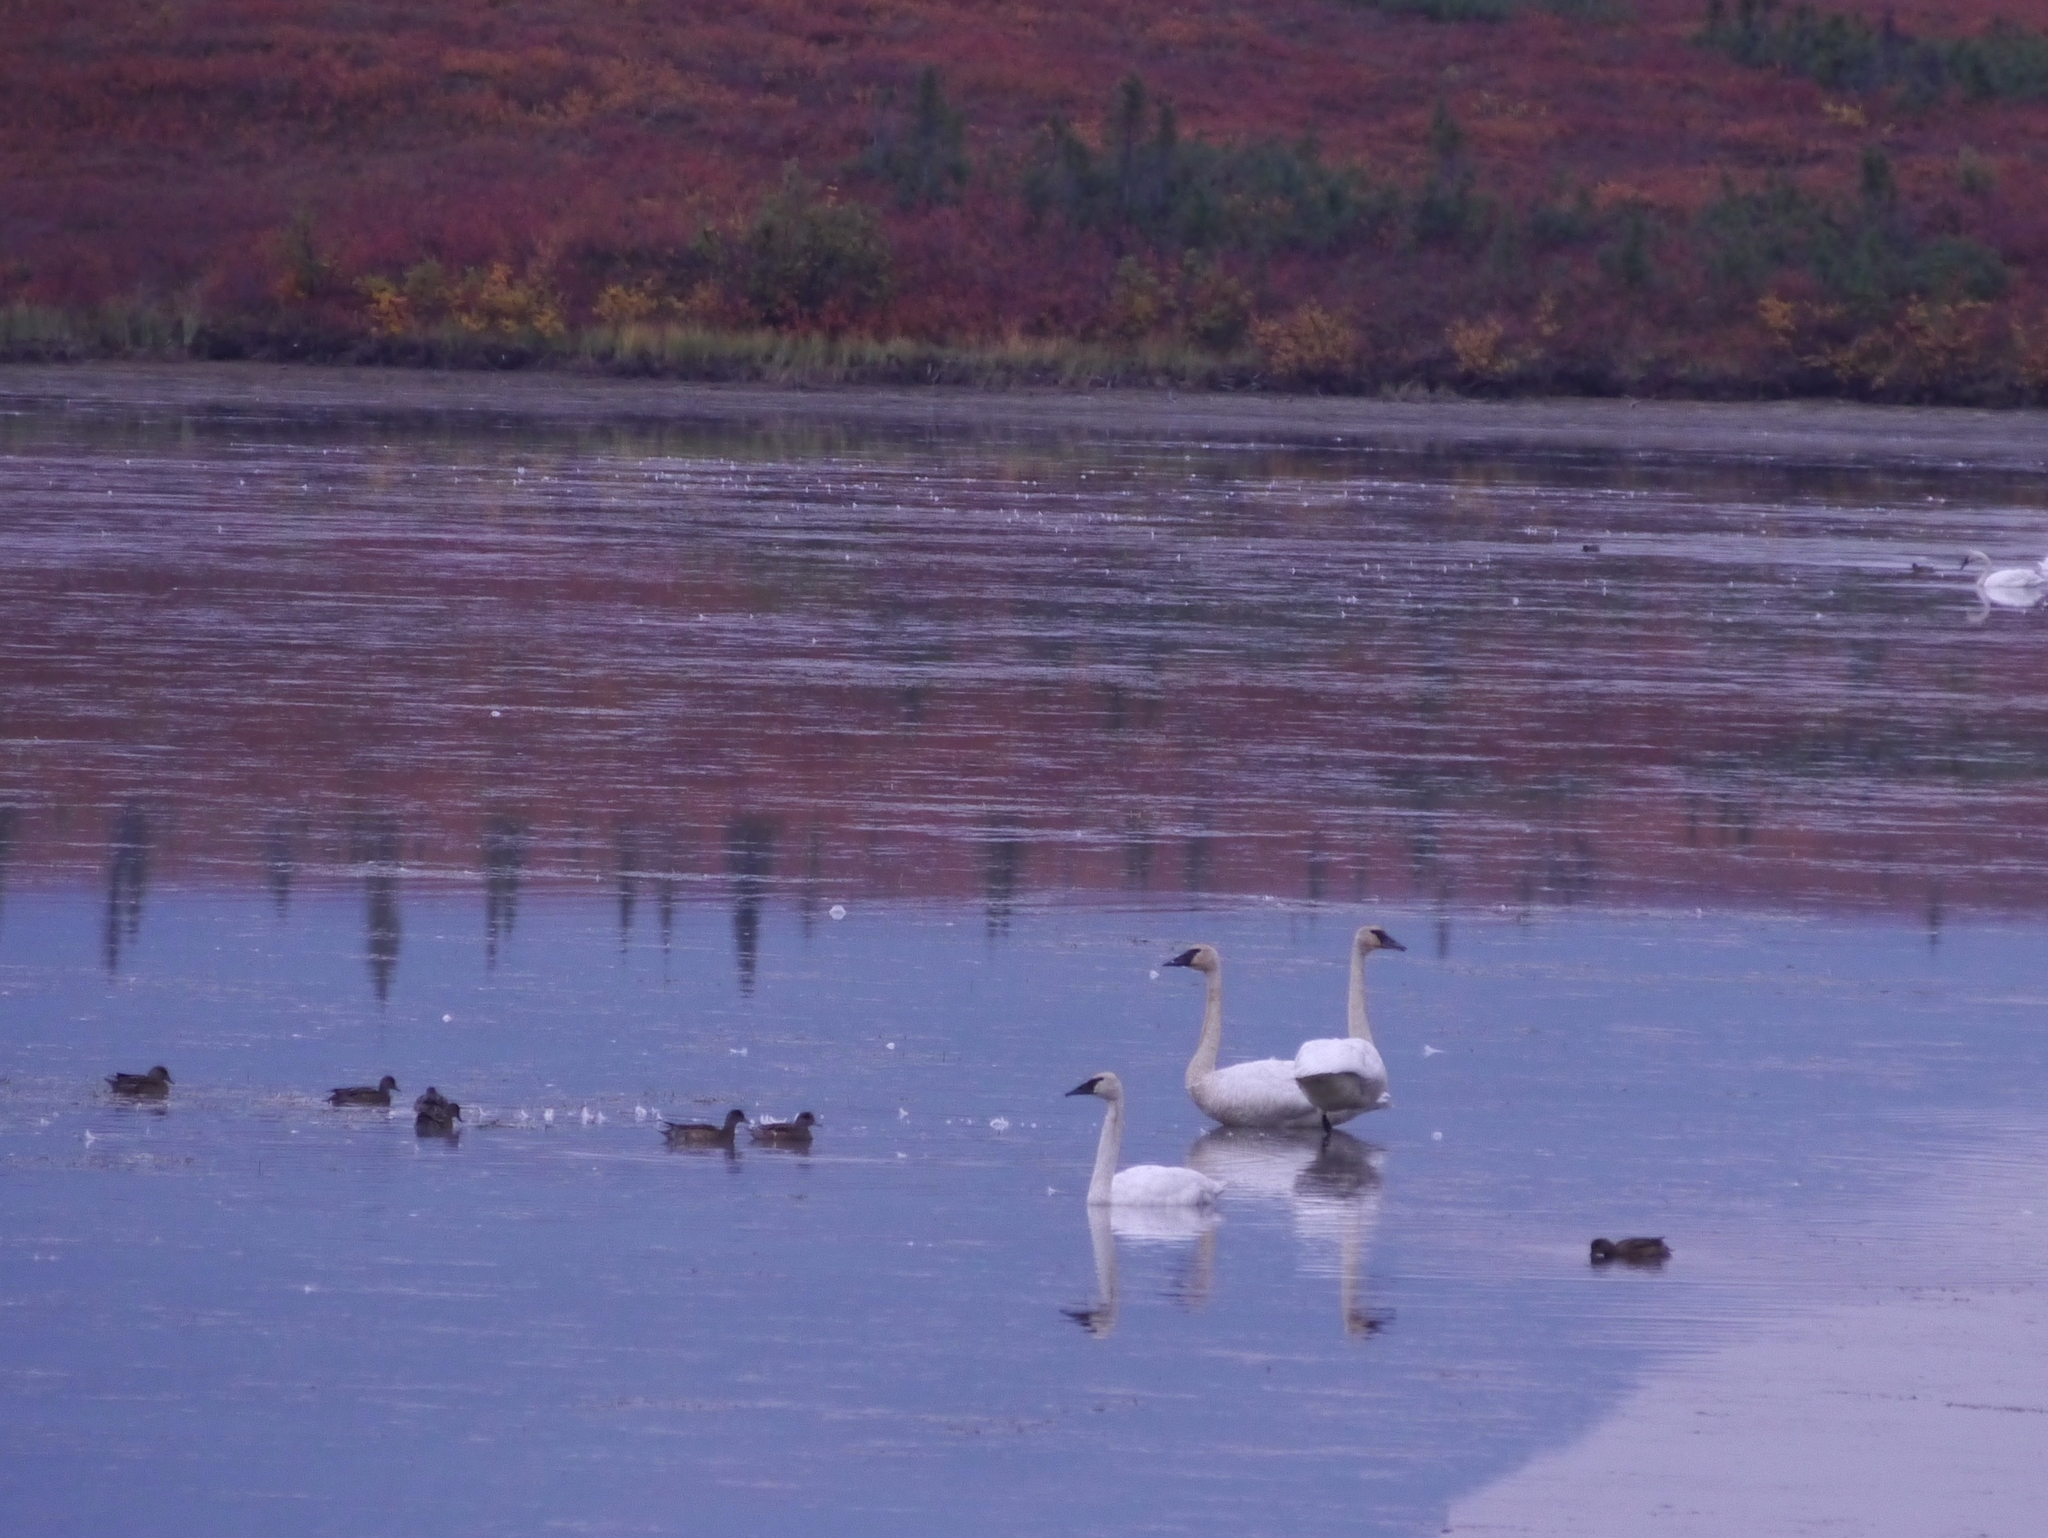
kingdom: Animalia
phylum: Chordata
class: Aves
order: Anseriformes
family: Anatidae
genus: Cygnus
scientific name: Cygnus buccinator
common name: Trumpeter swan
